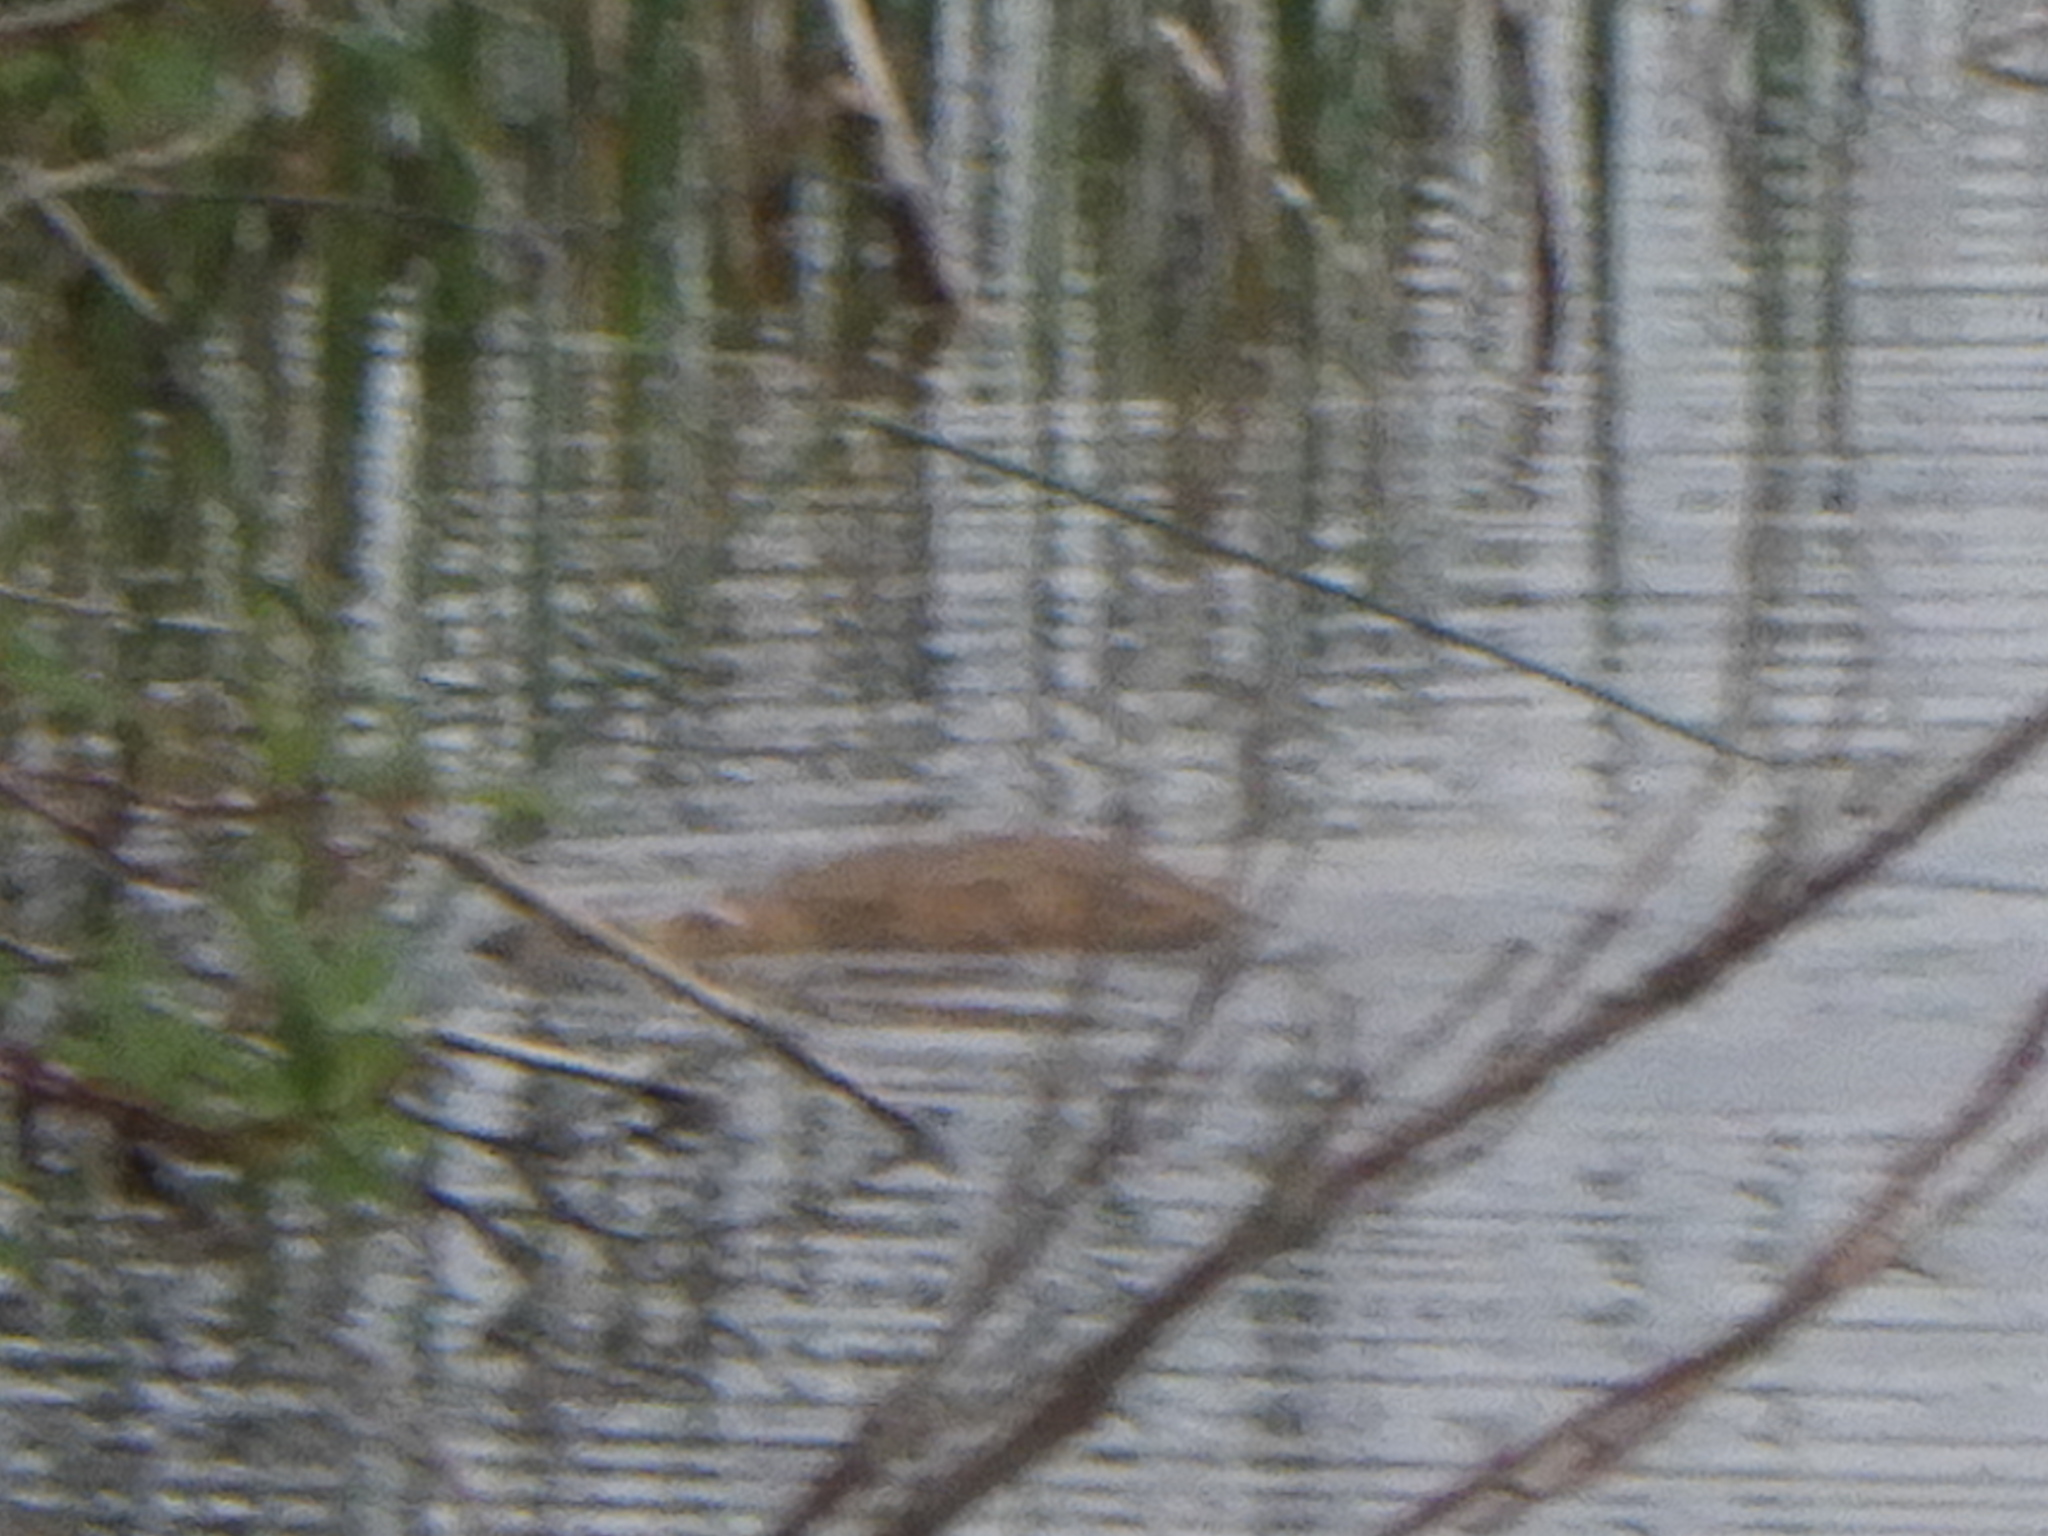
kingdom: Animalia
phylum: Chordata
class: Mammalia
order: Rodentia
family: Cricetidae
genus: Ondatra
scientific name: Ondatra zibethicus
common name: Muskrat
